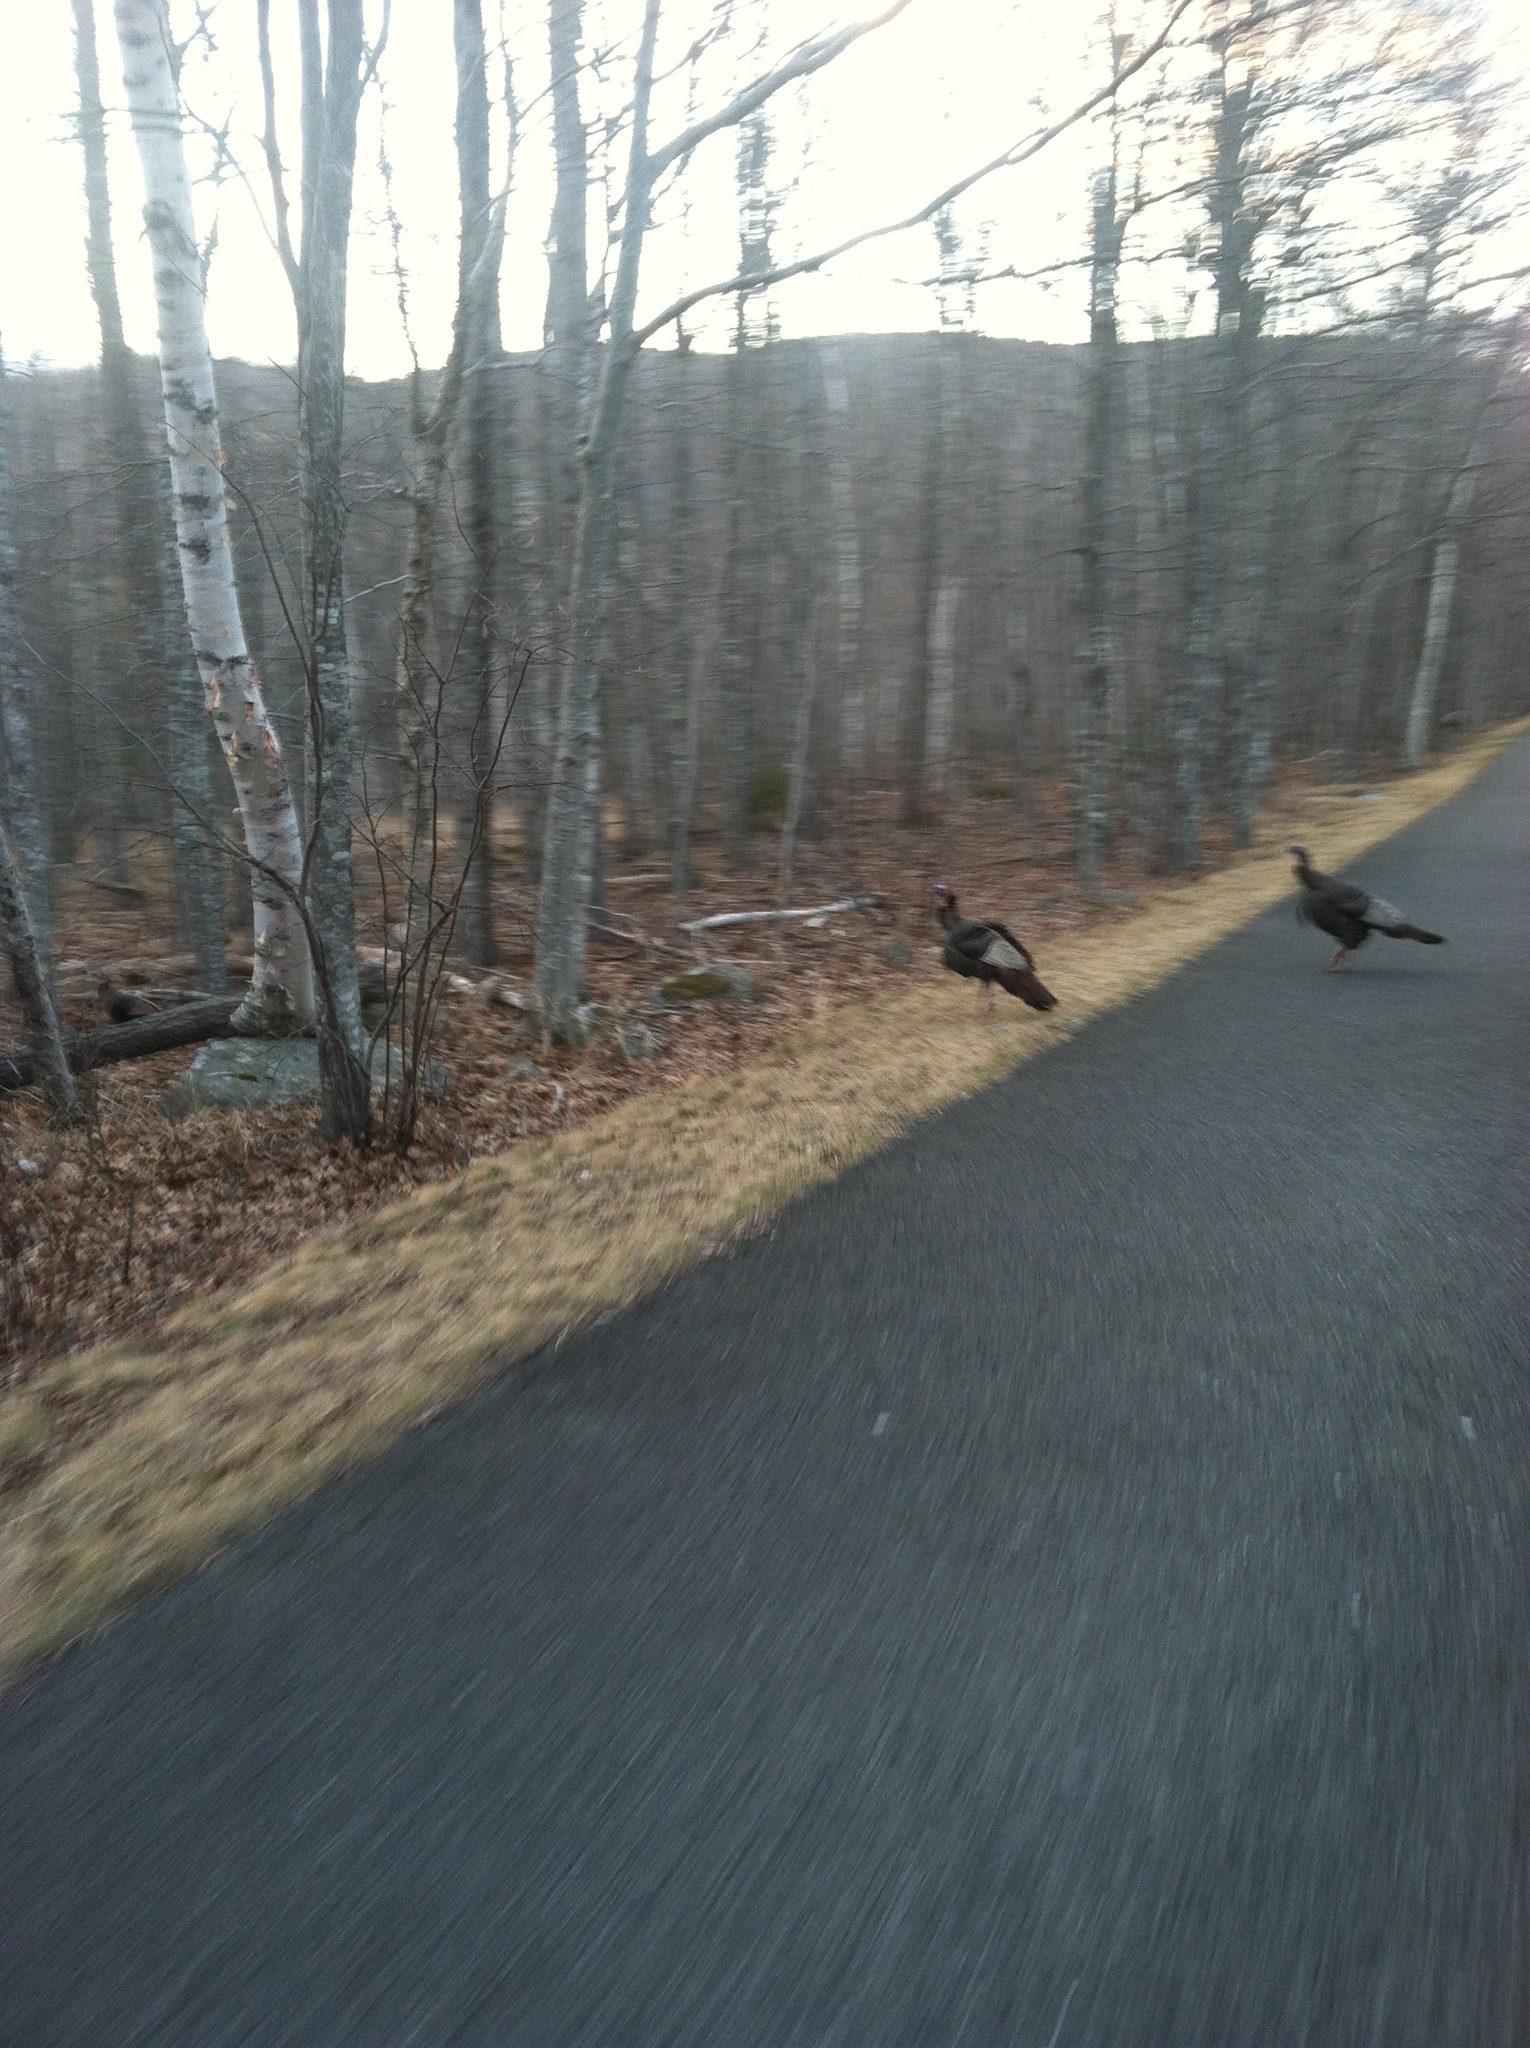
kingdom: Animalia
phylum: Chordata
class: Aves
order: Galliformes
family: Phasianidae
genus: Meleagris
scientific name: Meleagris gallopavo
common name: Wild turkey
